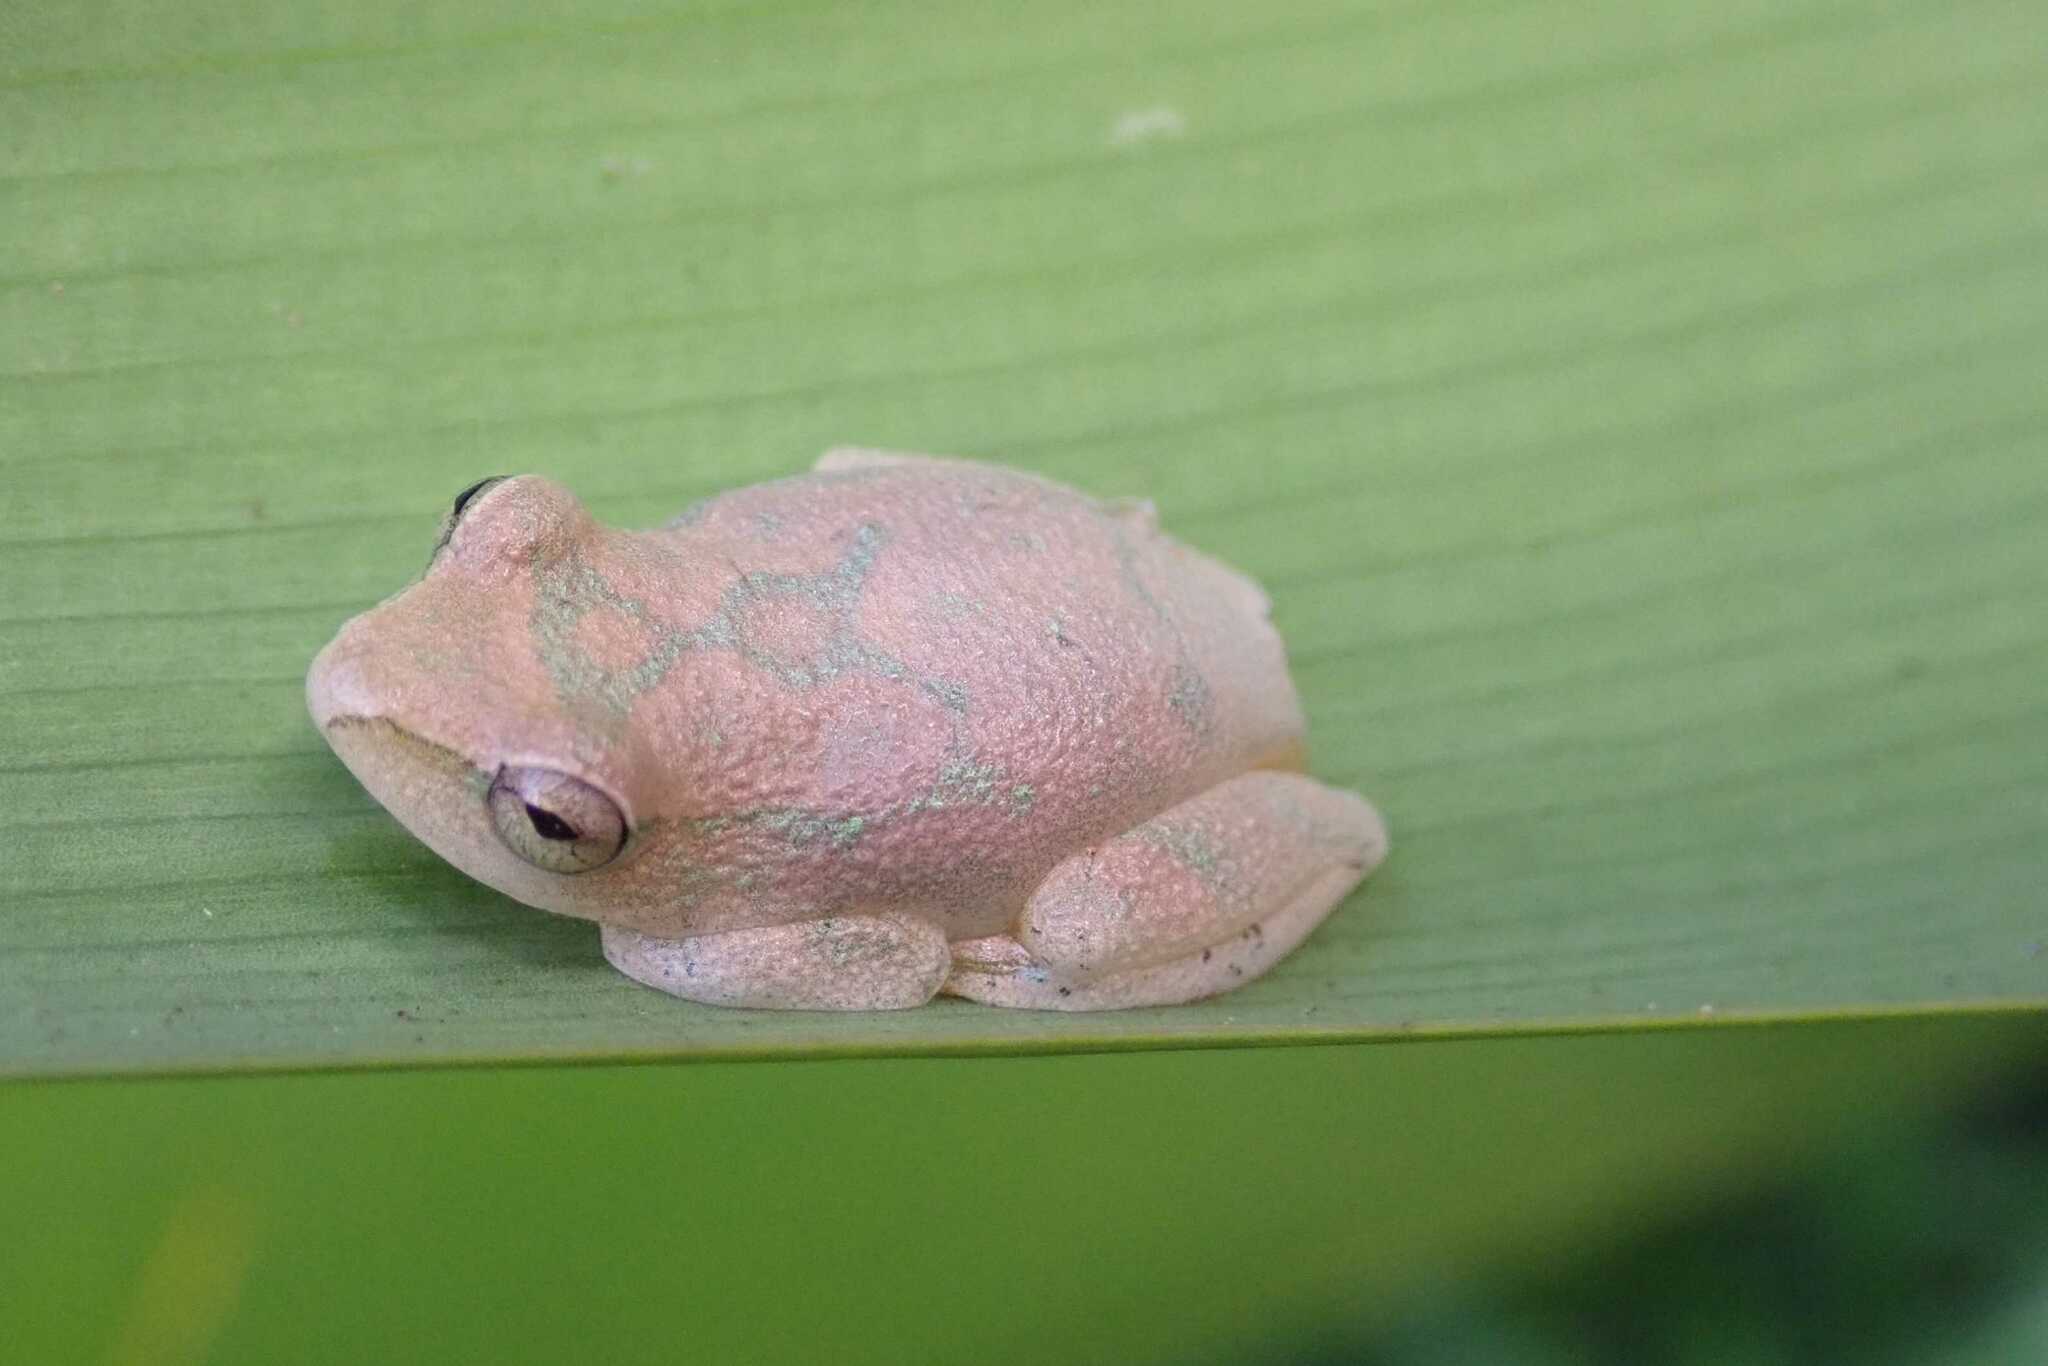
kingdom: Animalia
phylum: Chordata
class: Amphibia
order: Anura
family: Hyperoliidae
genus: Hyperolius
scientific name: Hyperolius tuberilinguis
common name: Tinker reed frog
